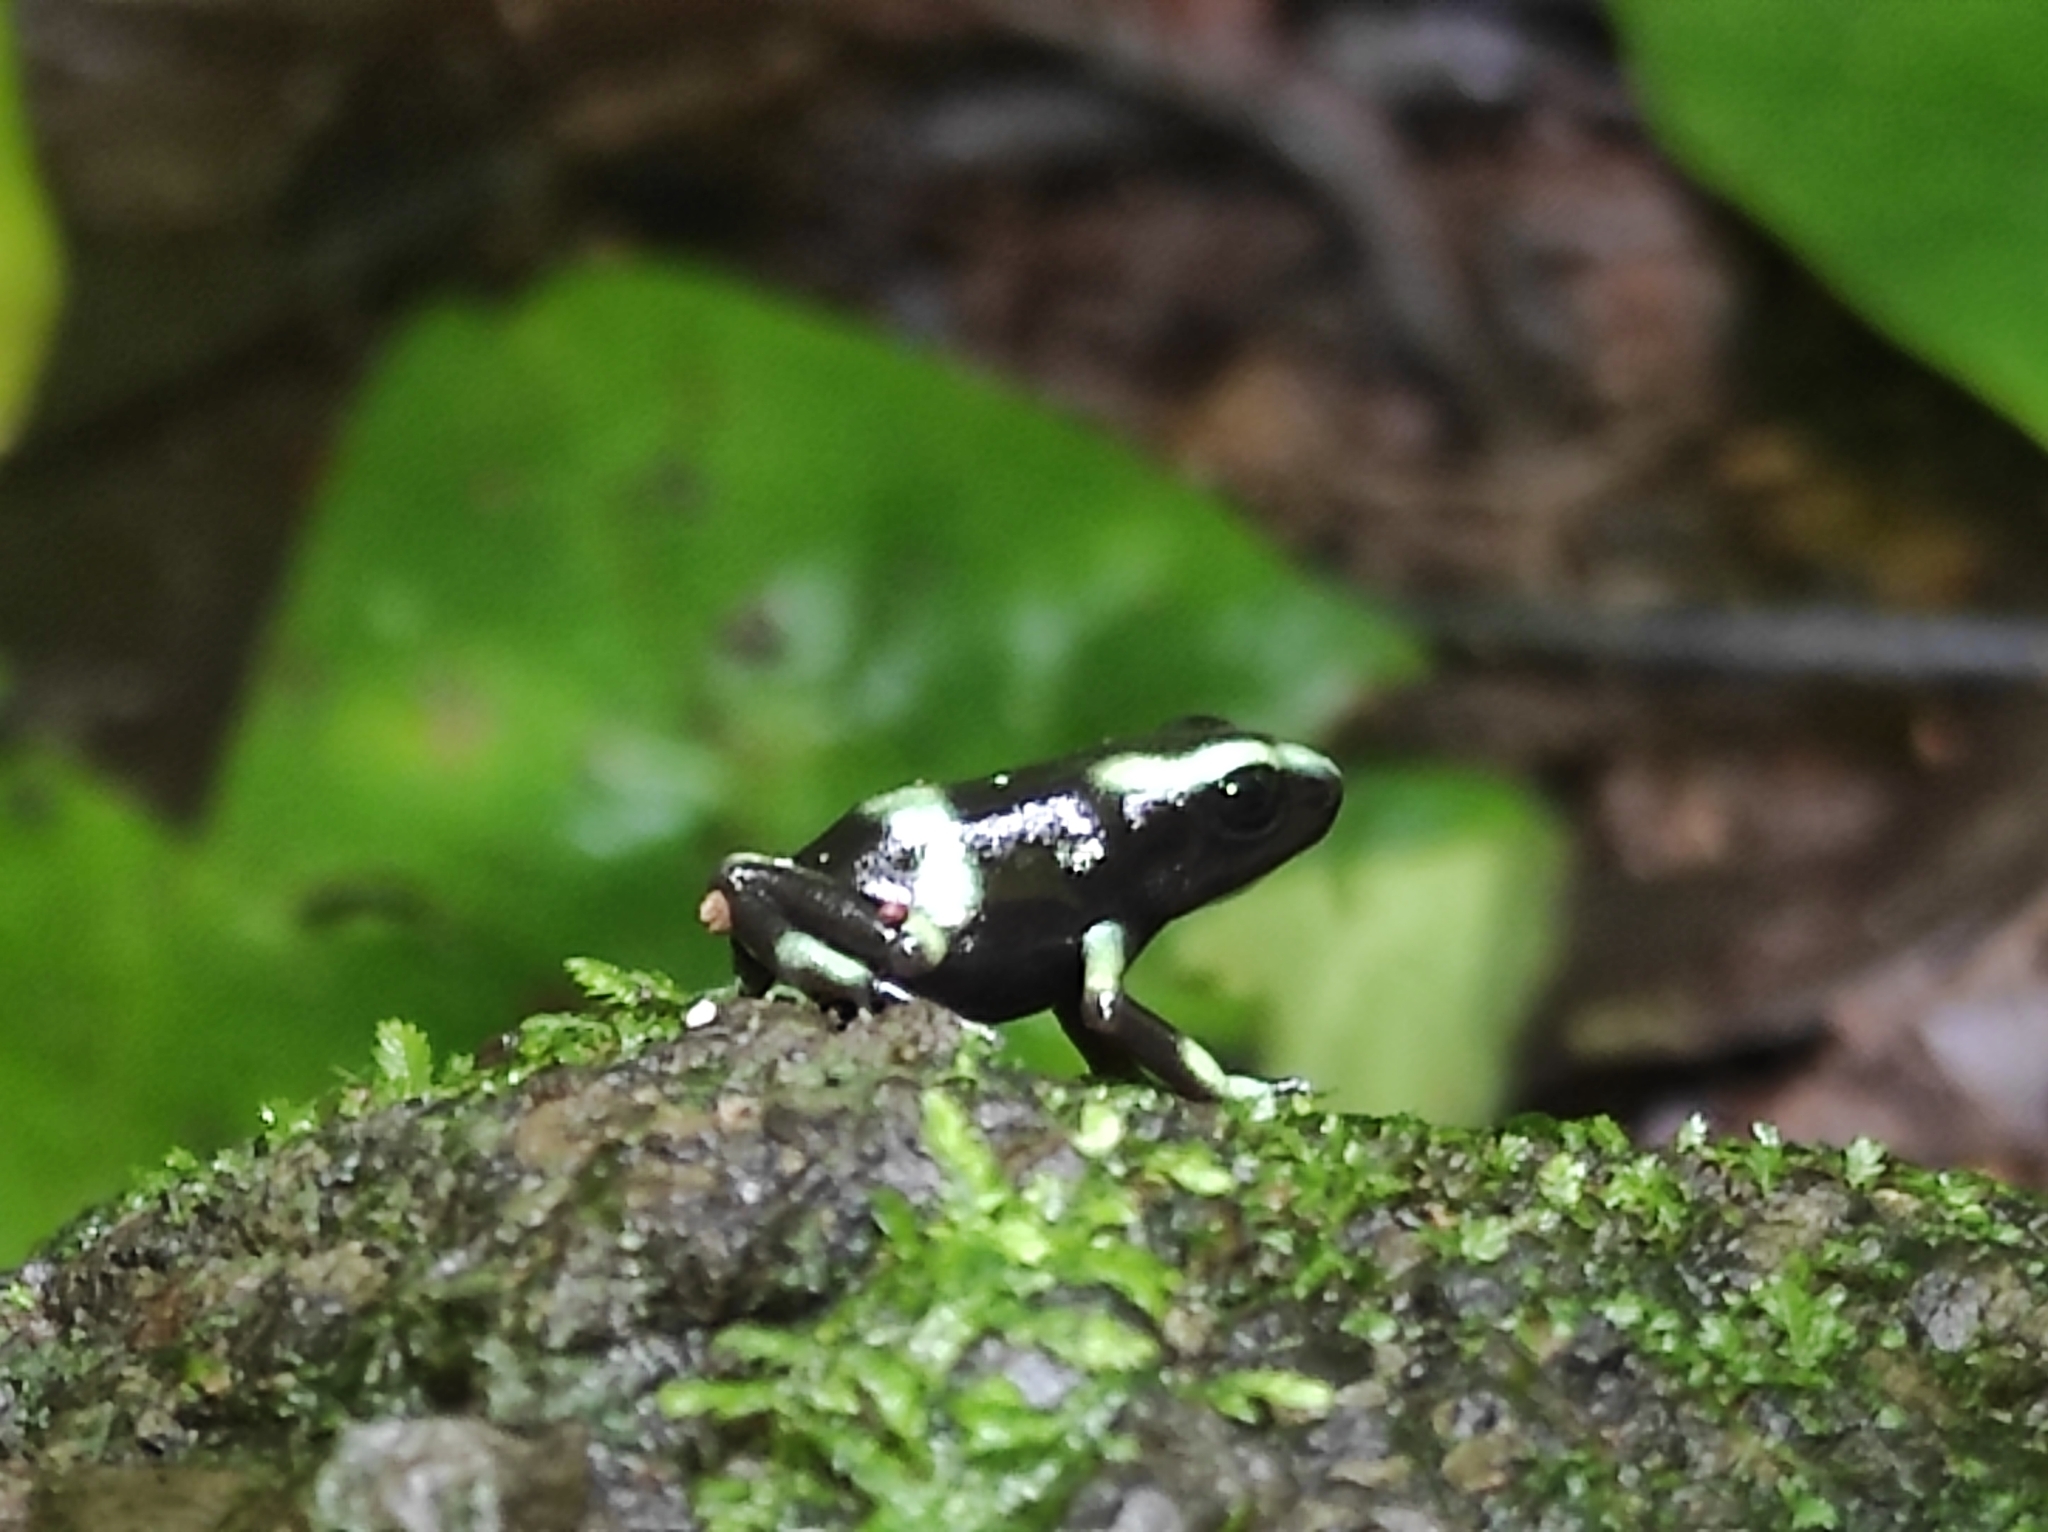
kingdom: Animalia
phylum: Chordata
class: Amphibia
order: Anura
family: Dendrobatidae
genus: Dendrobates
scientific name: Dendrobates auratus
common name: Green and black poison dart frog
